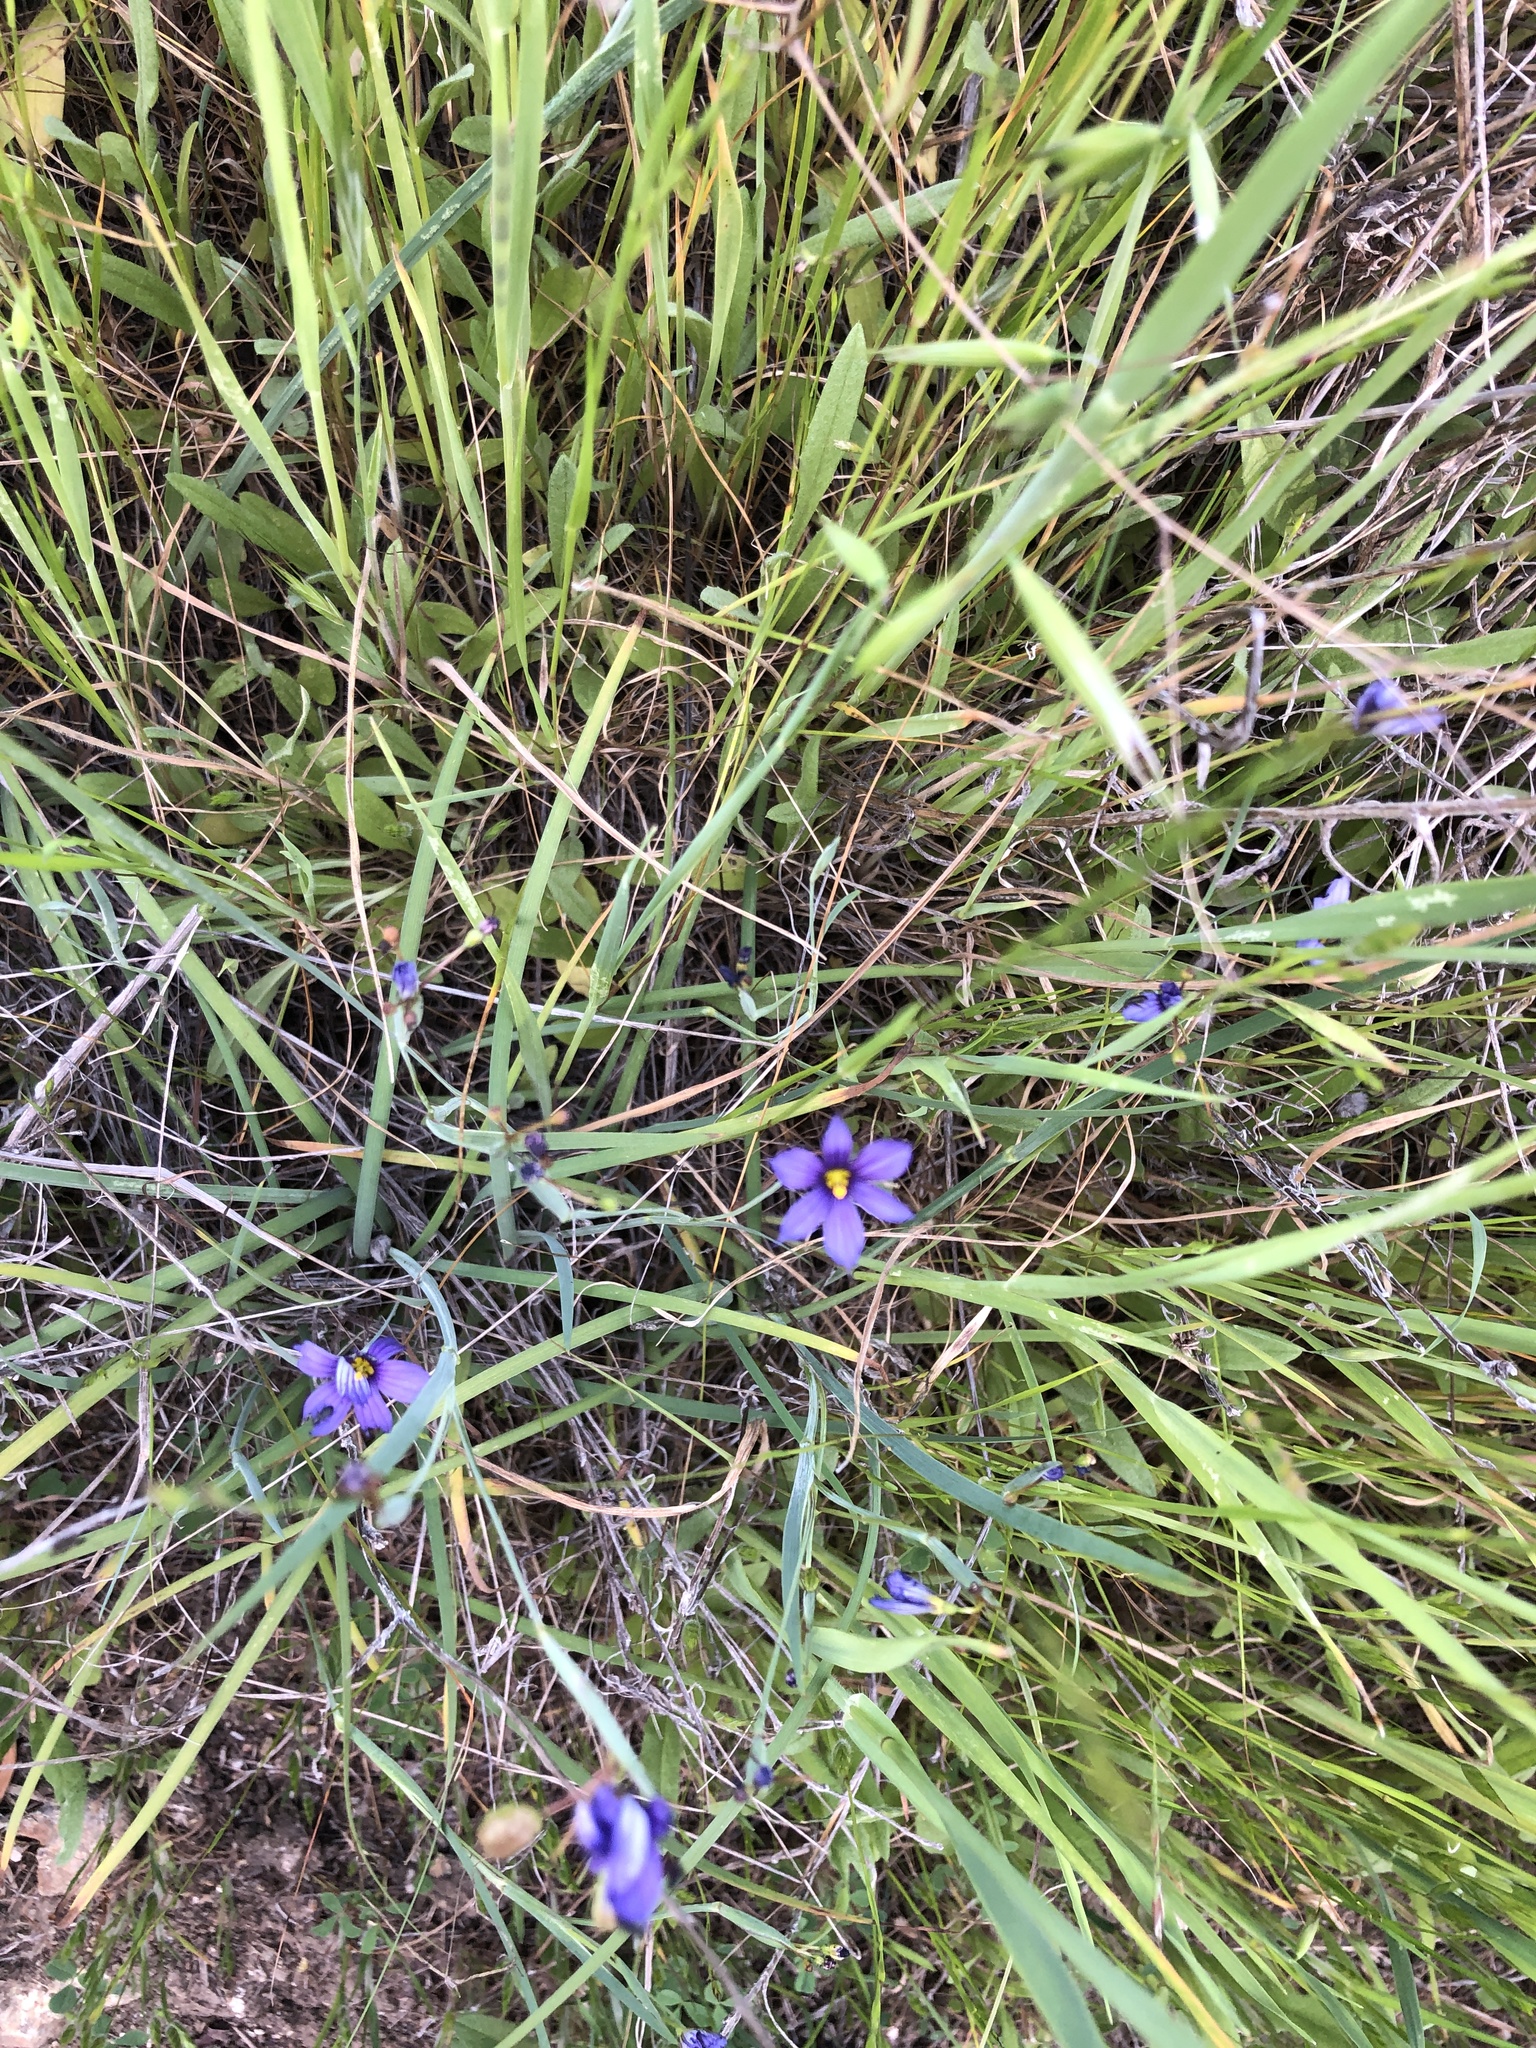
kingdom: Plantae
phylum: Tracheophyta
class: Liliopsida
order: Asparagales
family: Iridaceae
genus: Sisyrinchium
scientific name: Sisyrinchium bellum
